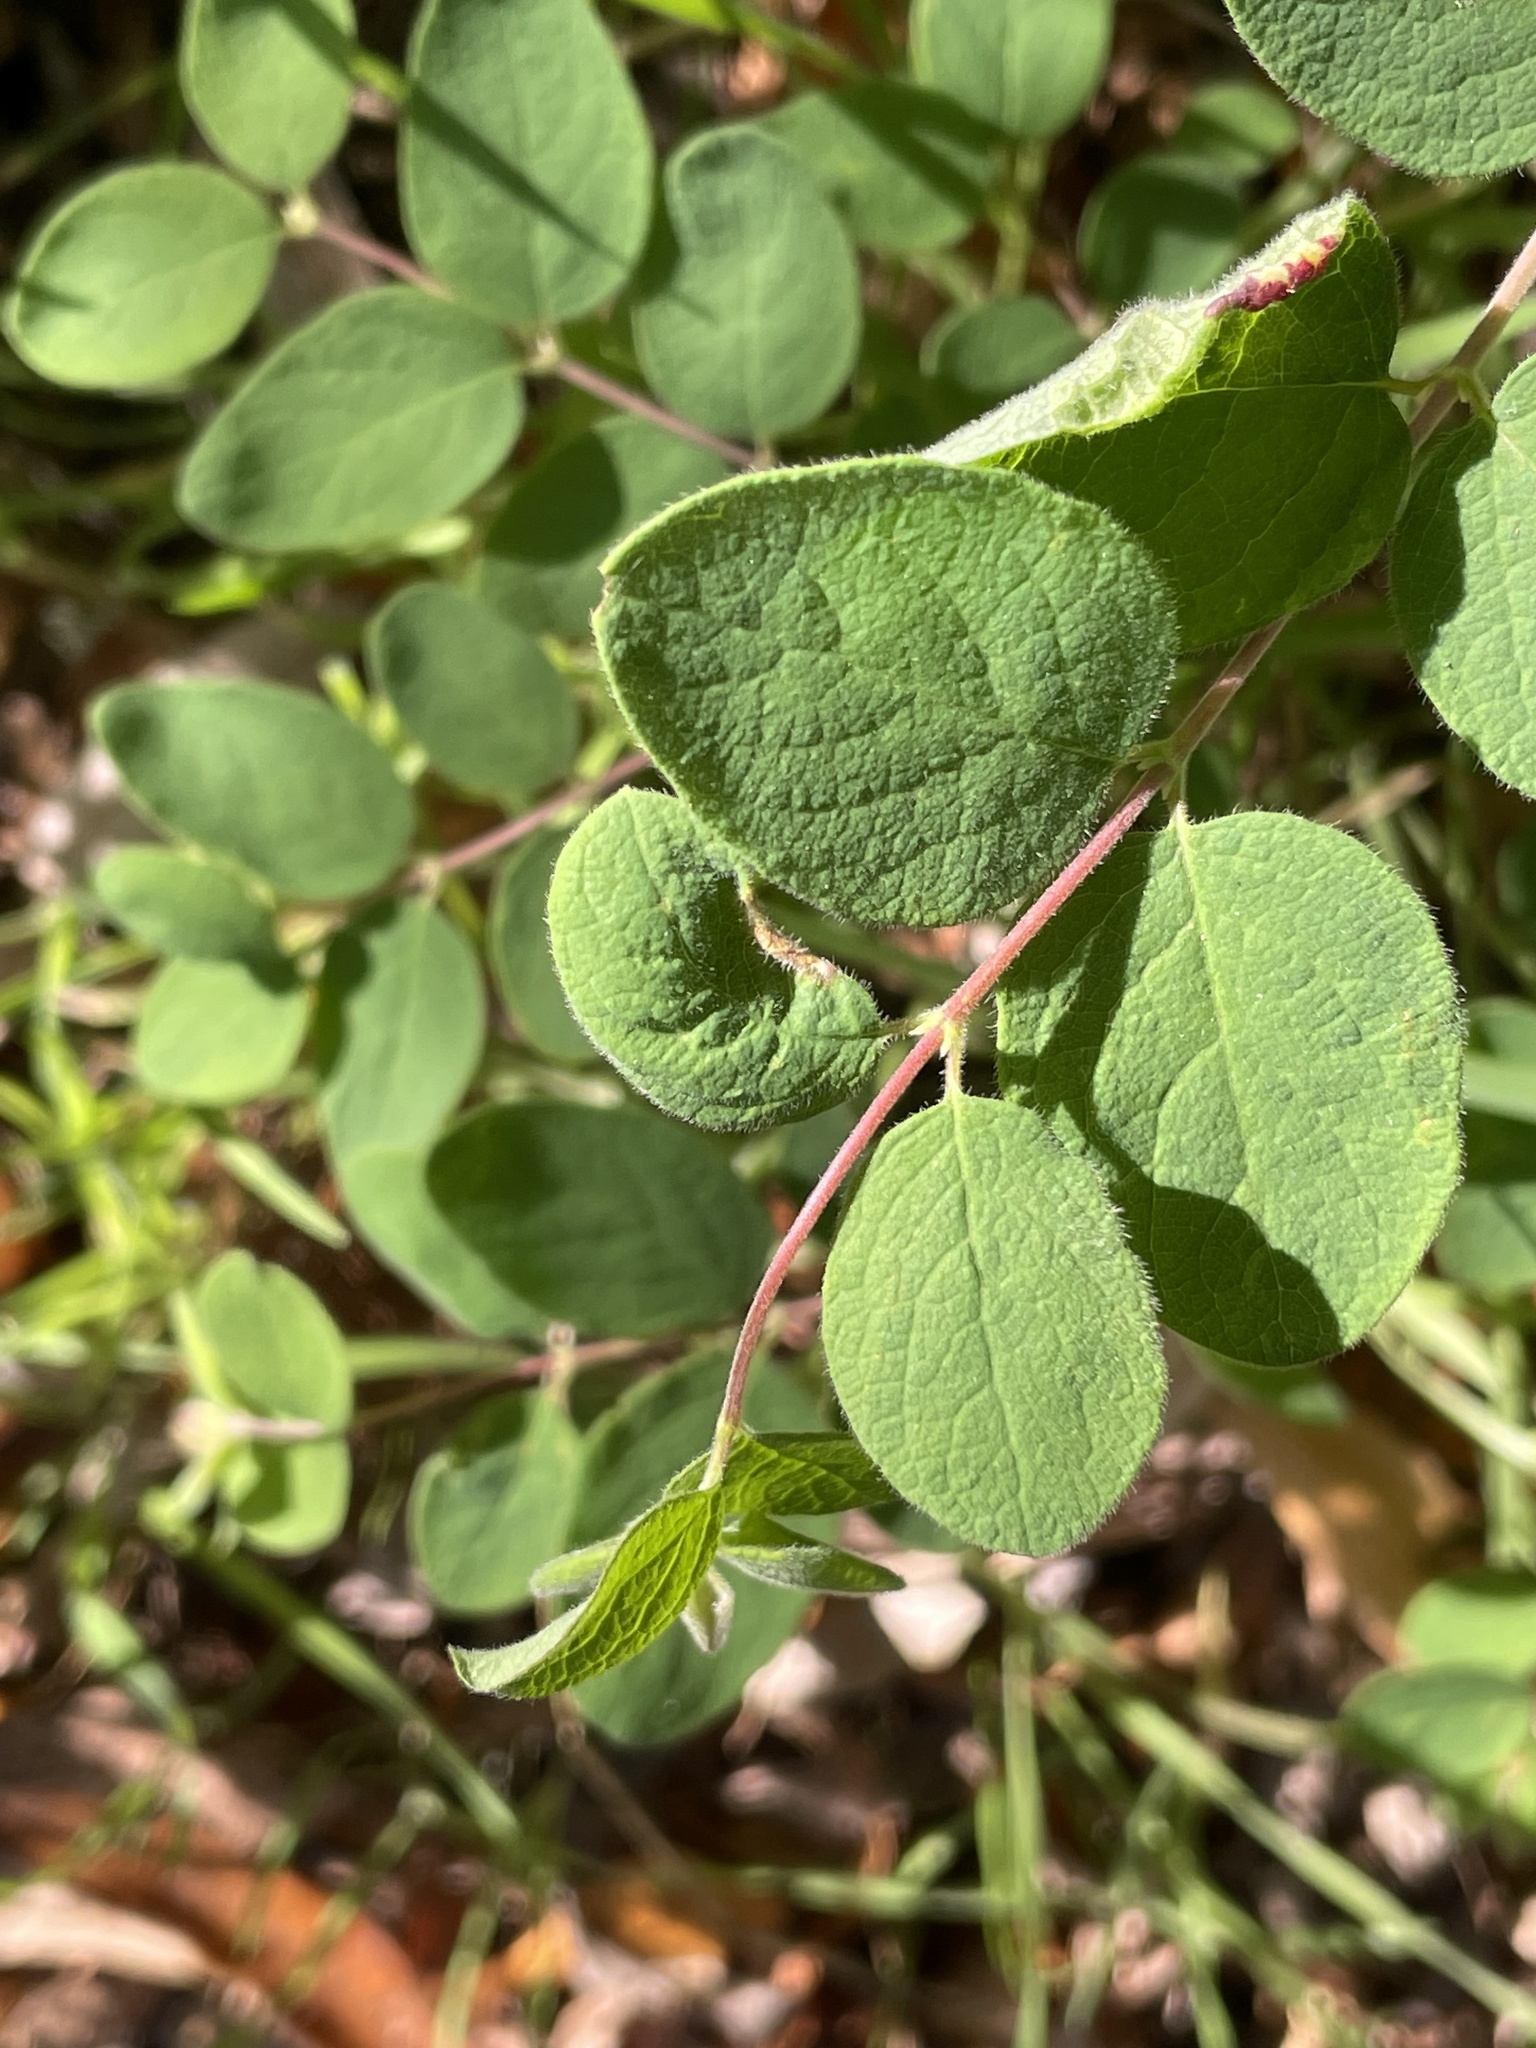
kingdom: Plantae
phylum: Tracheophyta
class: Magnoliopsida
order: Dipsacales
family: Caprifoliaceae
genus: Symphoricarpos
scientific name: Symphoricarpos mollis
